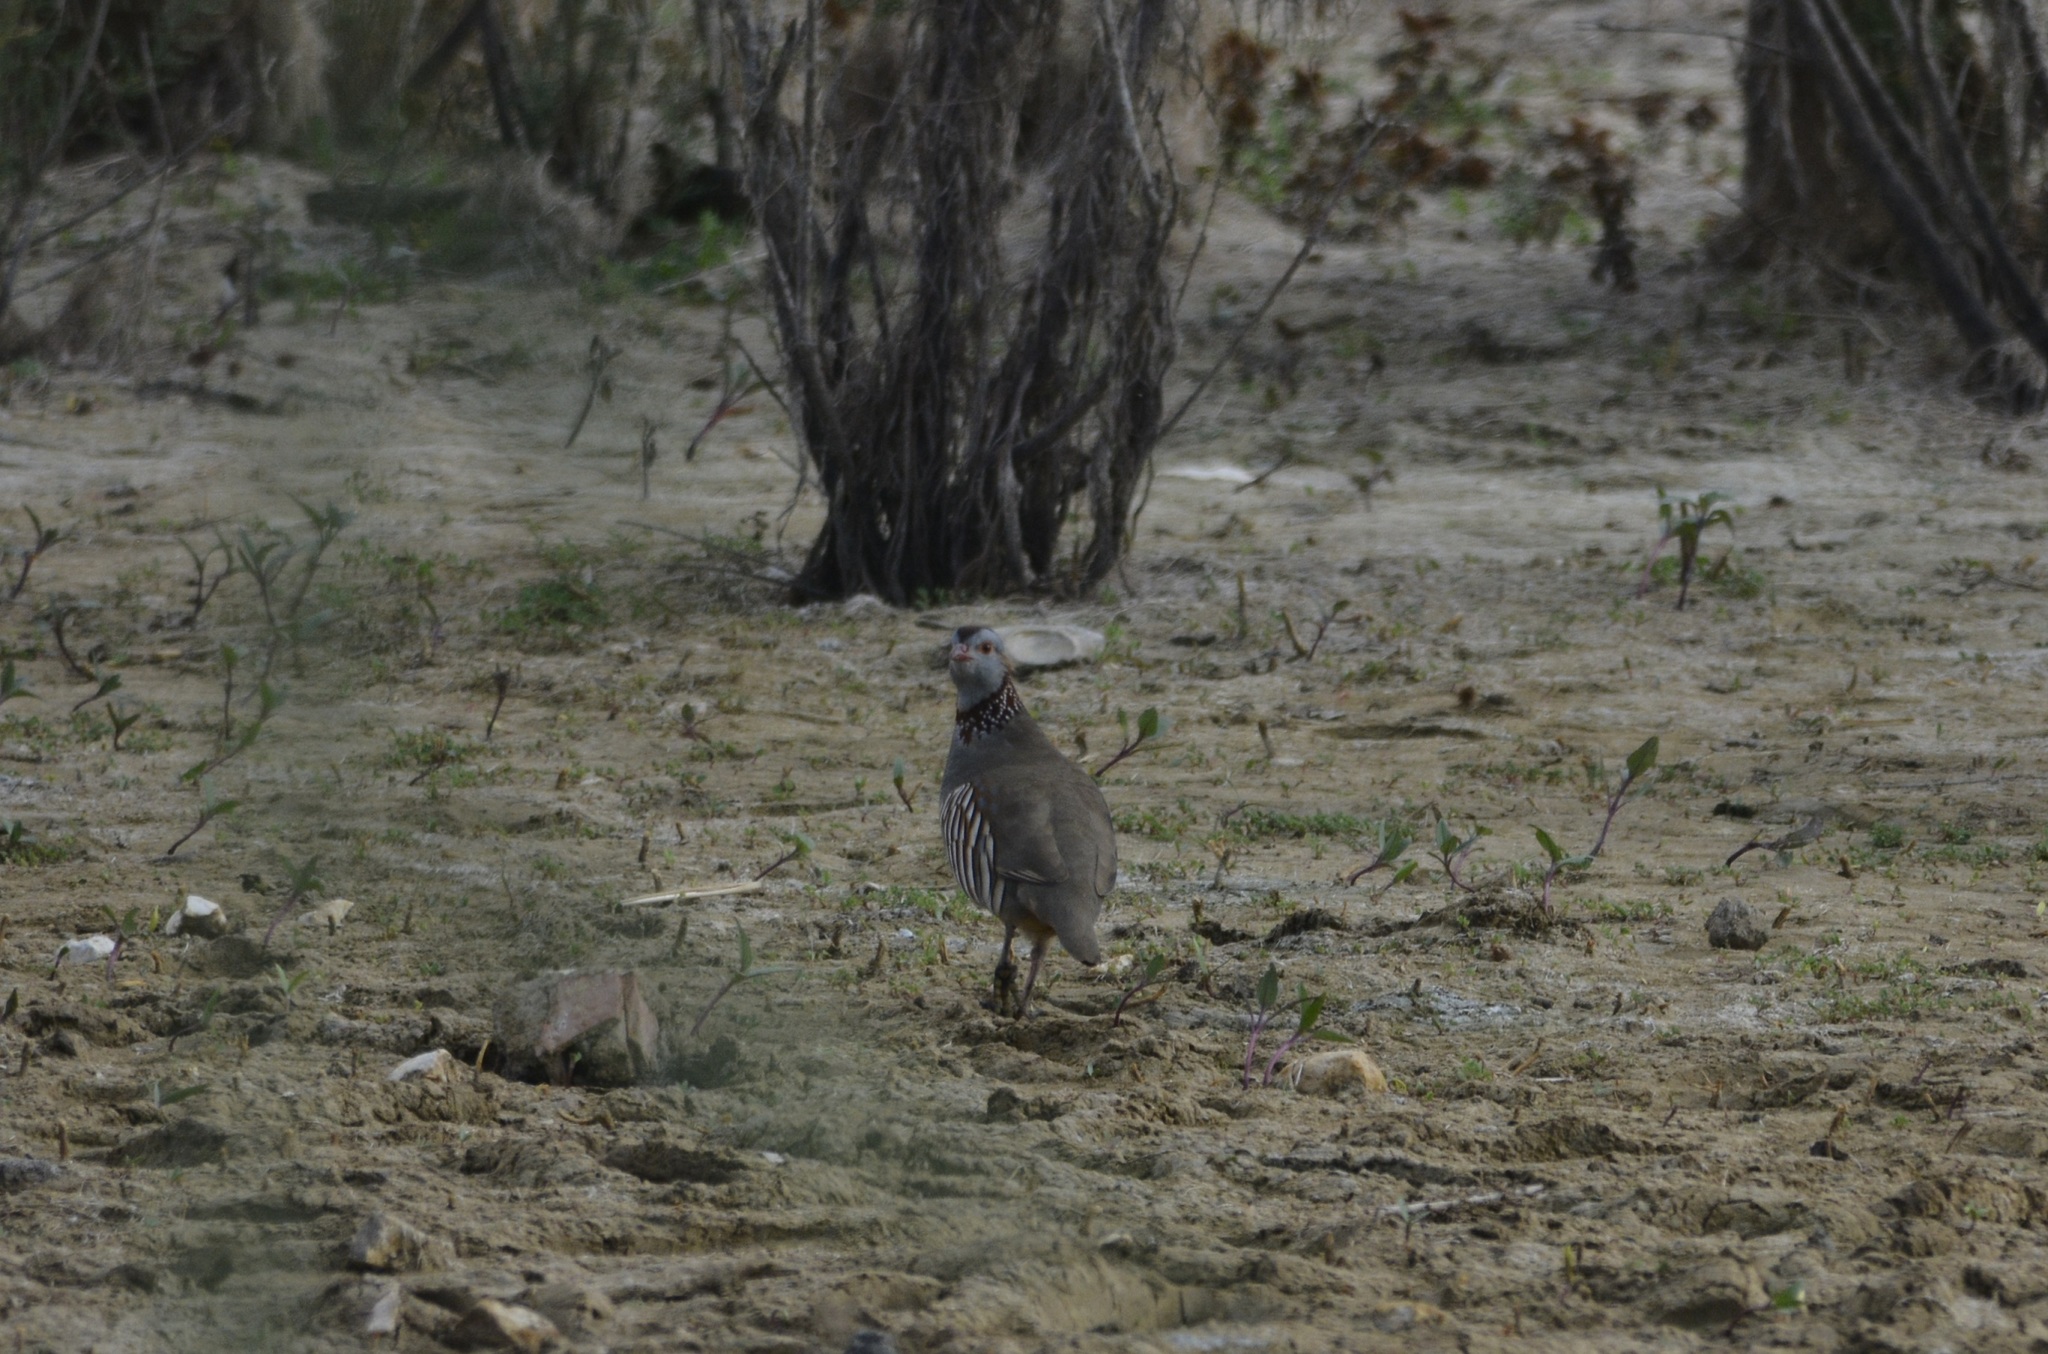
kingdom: Animalia
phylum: Chordata
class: Aves
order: Galliformes
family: Phasianidae
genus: Alectoris
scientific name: Alectoris barbara
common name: Barbary partridge
